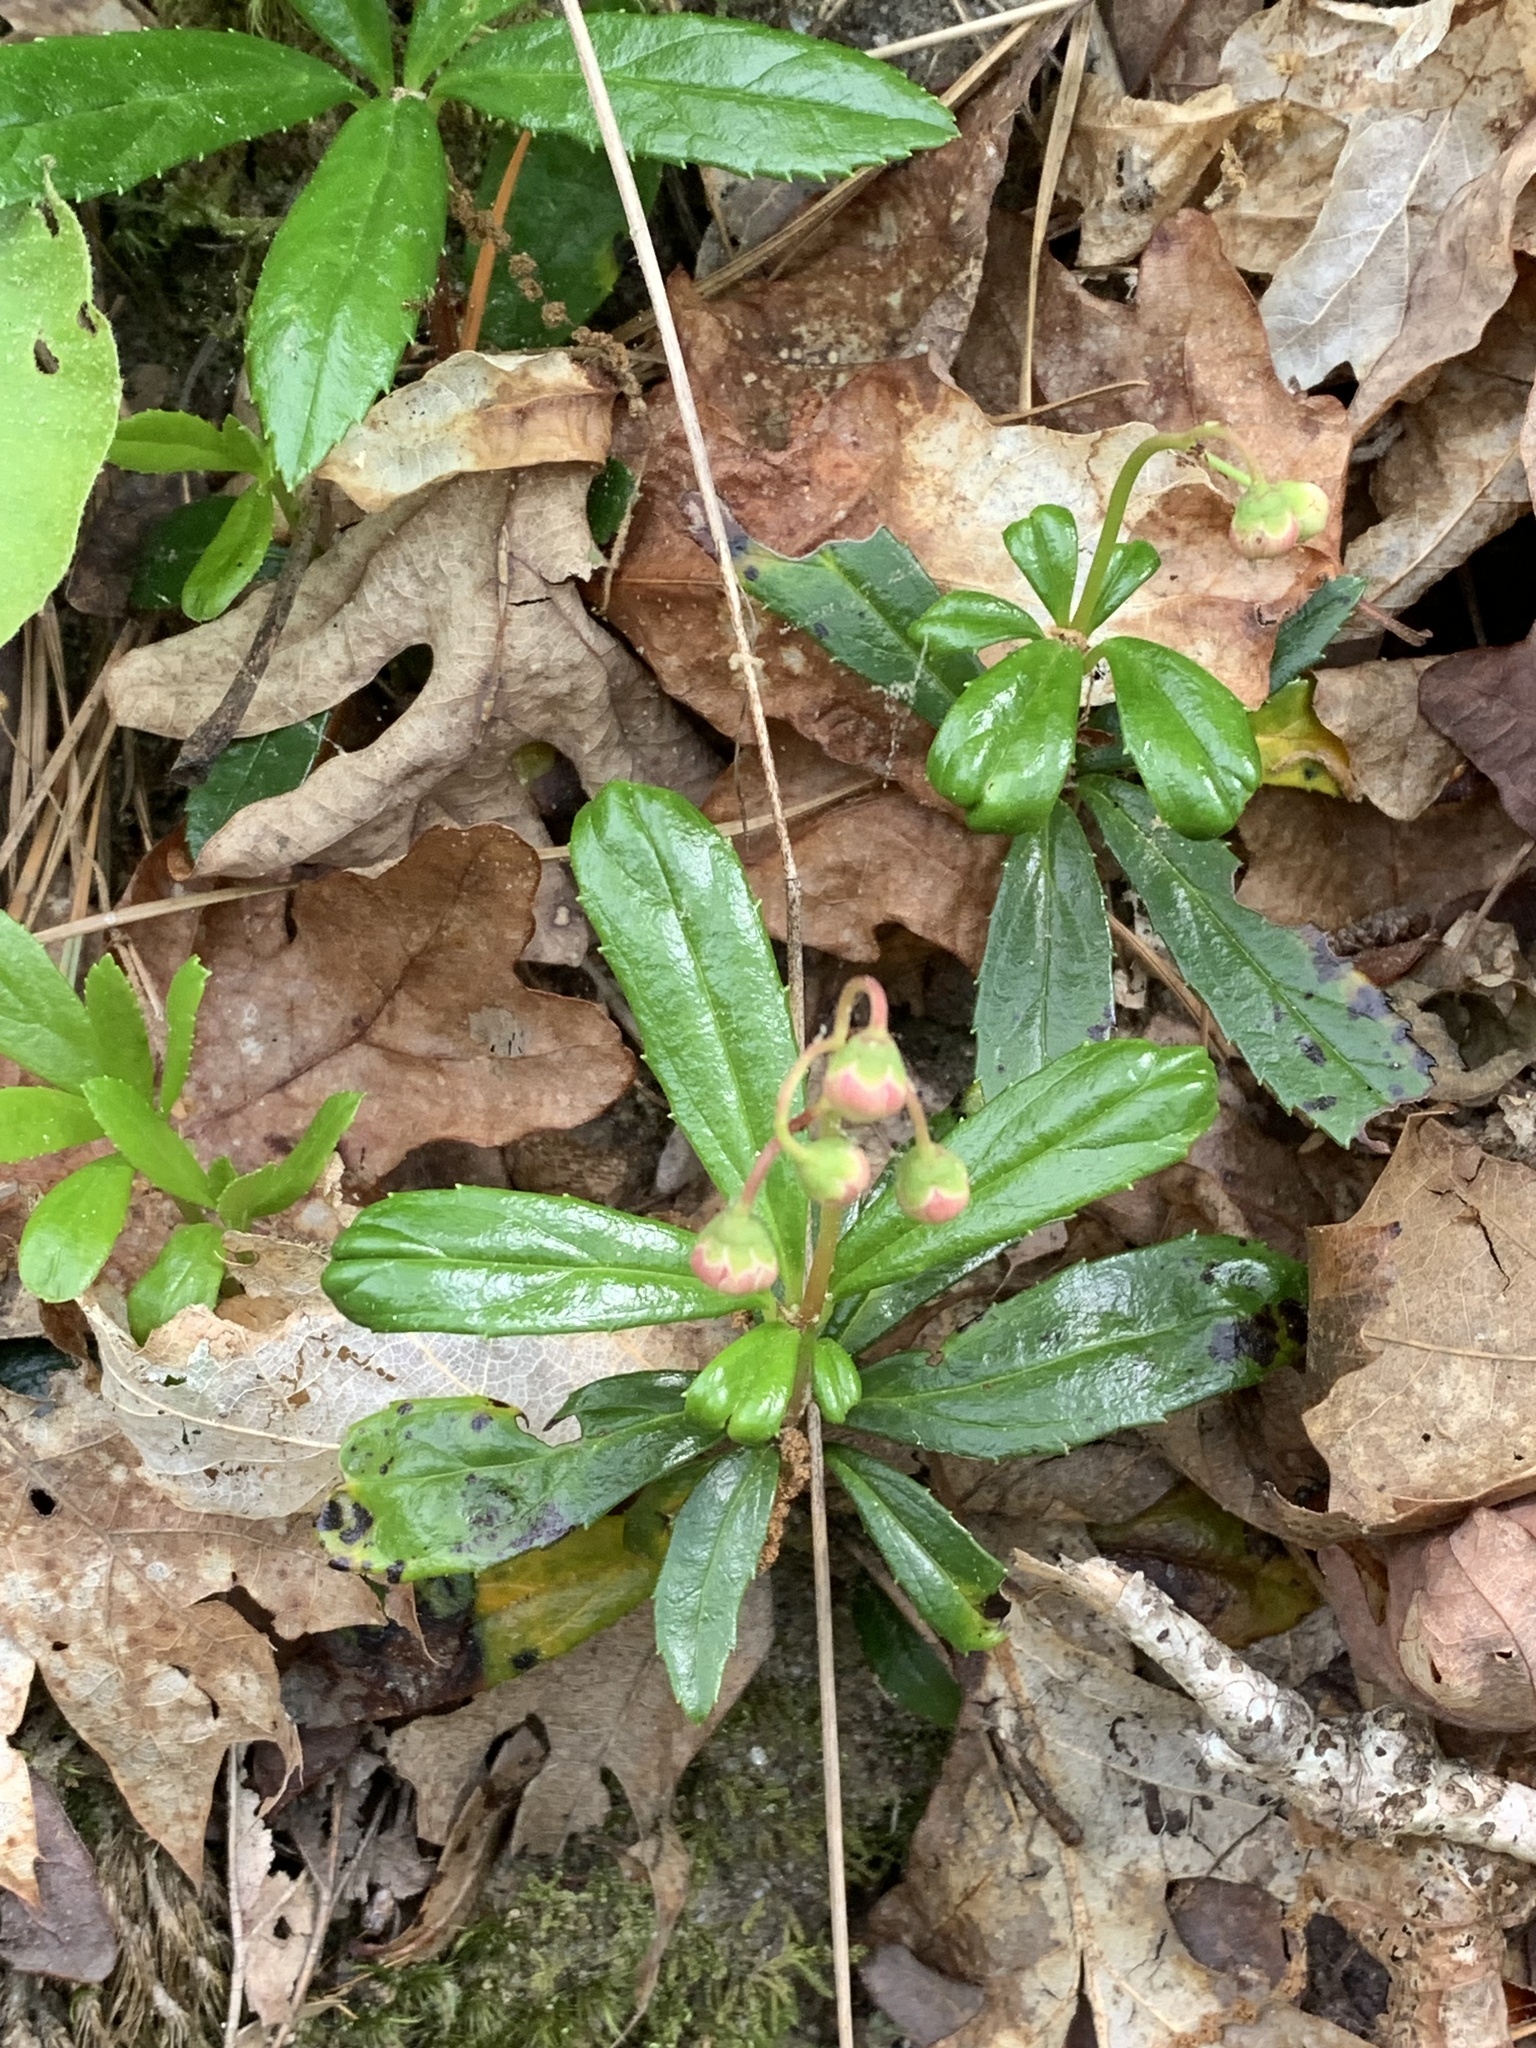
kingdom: Plantae
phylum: Tracheophyta
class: Magnoliopsida
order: Ericales
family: Ericaceae
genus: Chimaphila
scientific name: Chimaphila umbellata
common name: Pipsissewa
